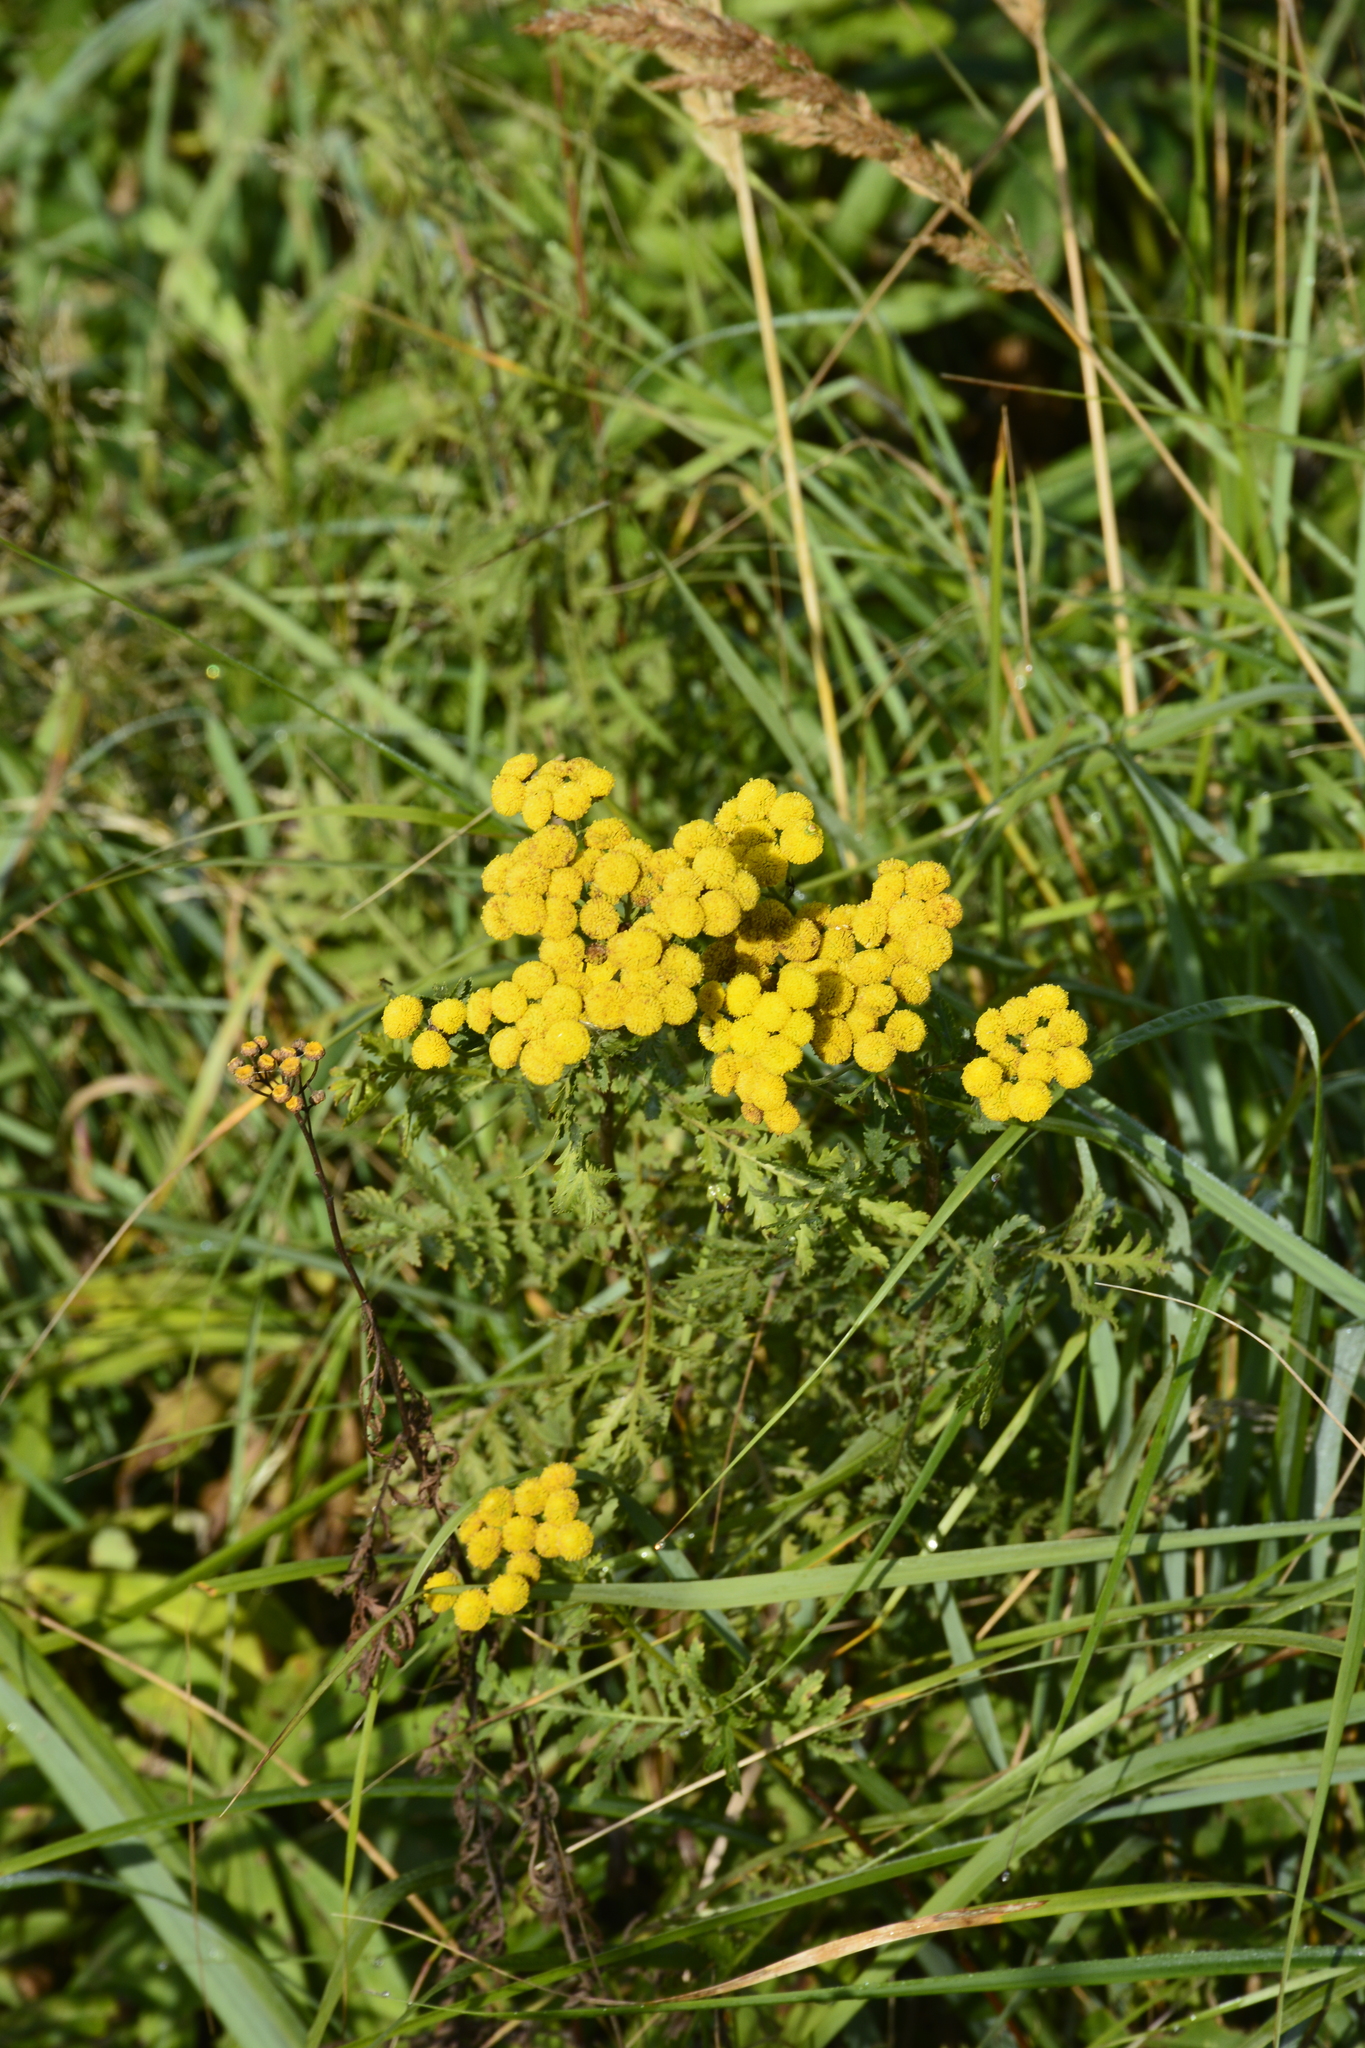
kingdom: Plantae
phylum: Tracheophyta
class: Magnoliopsida
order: Asterales
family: Asteraceae
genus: Tanacetum
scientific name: Tanacetum vulgare
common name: Common tansy
